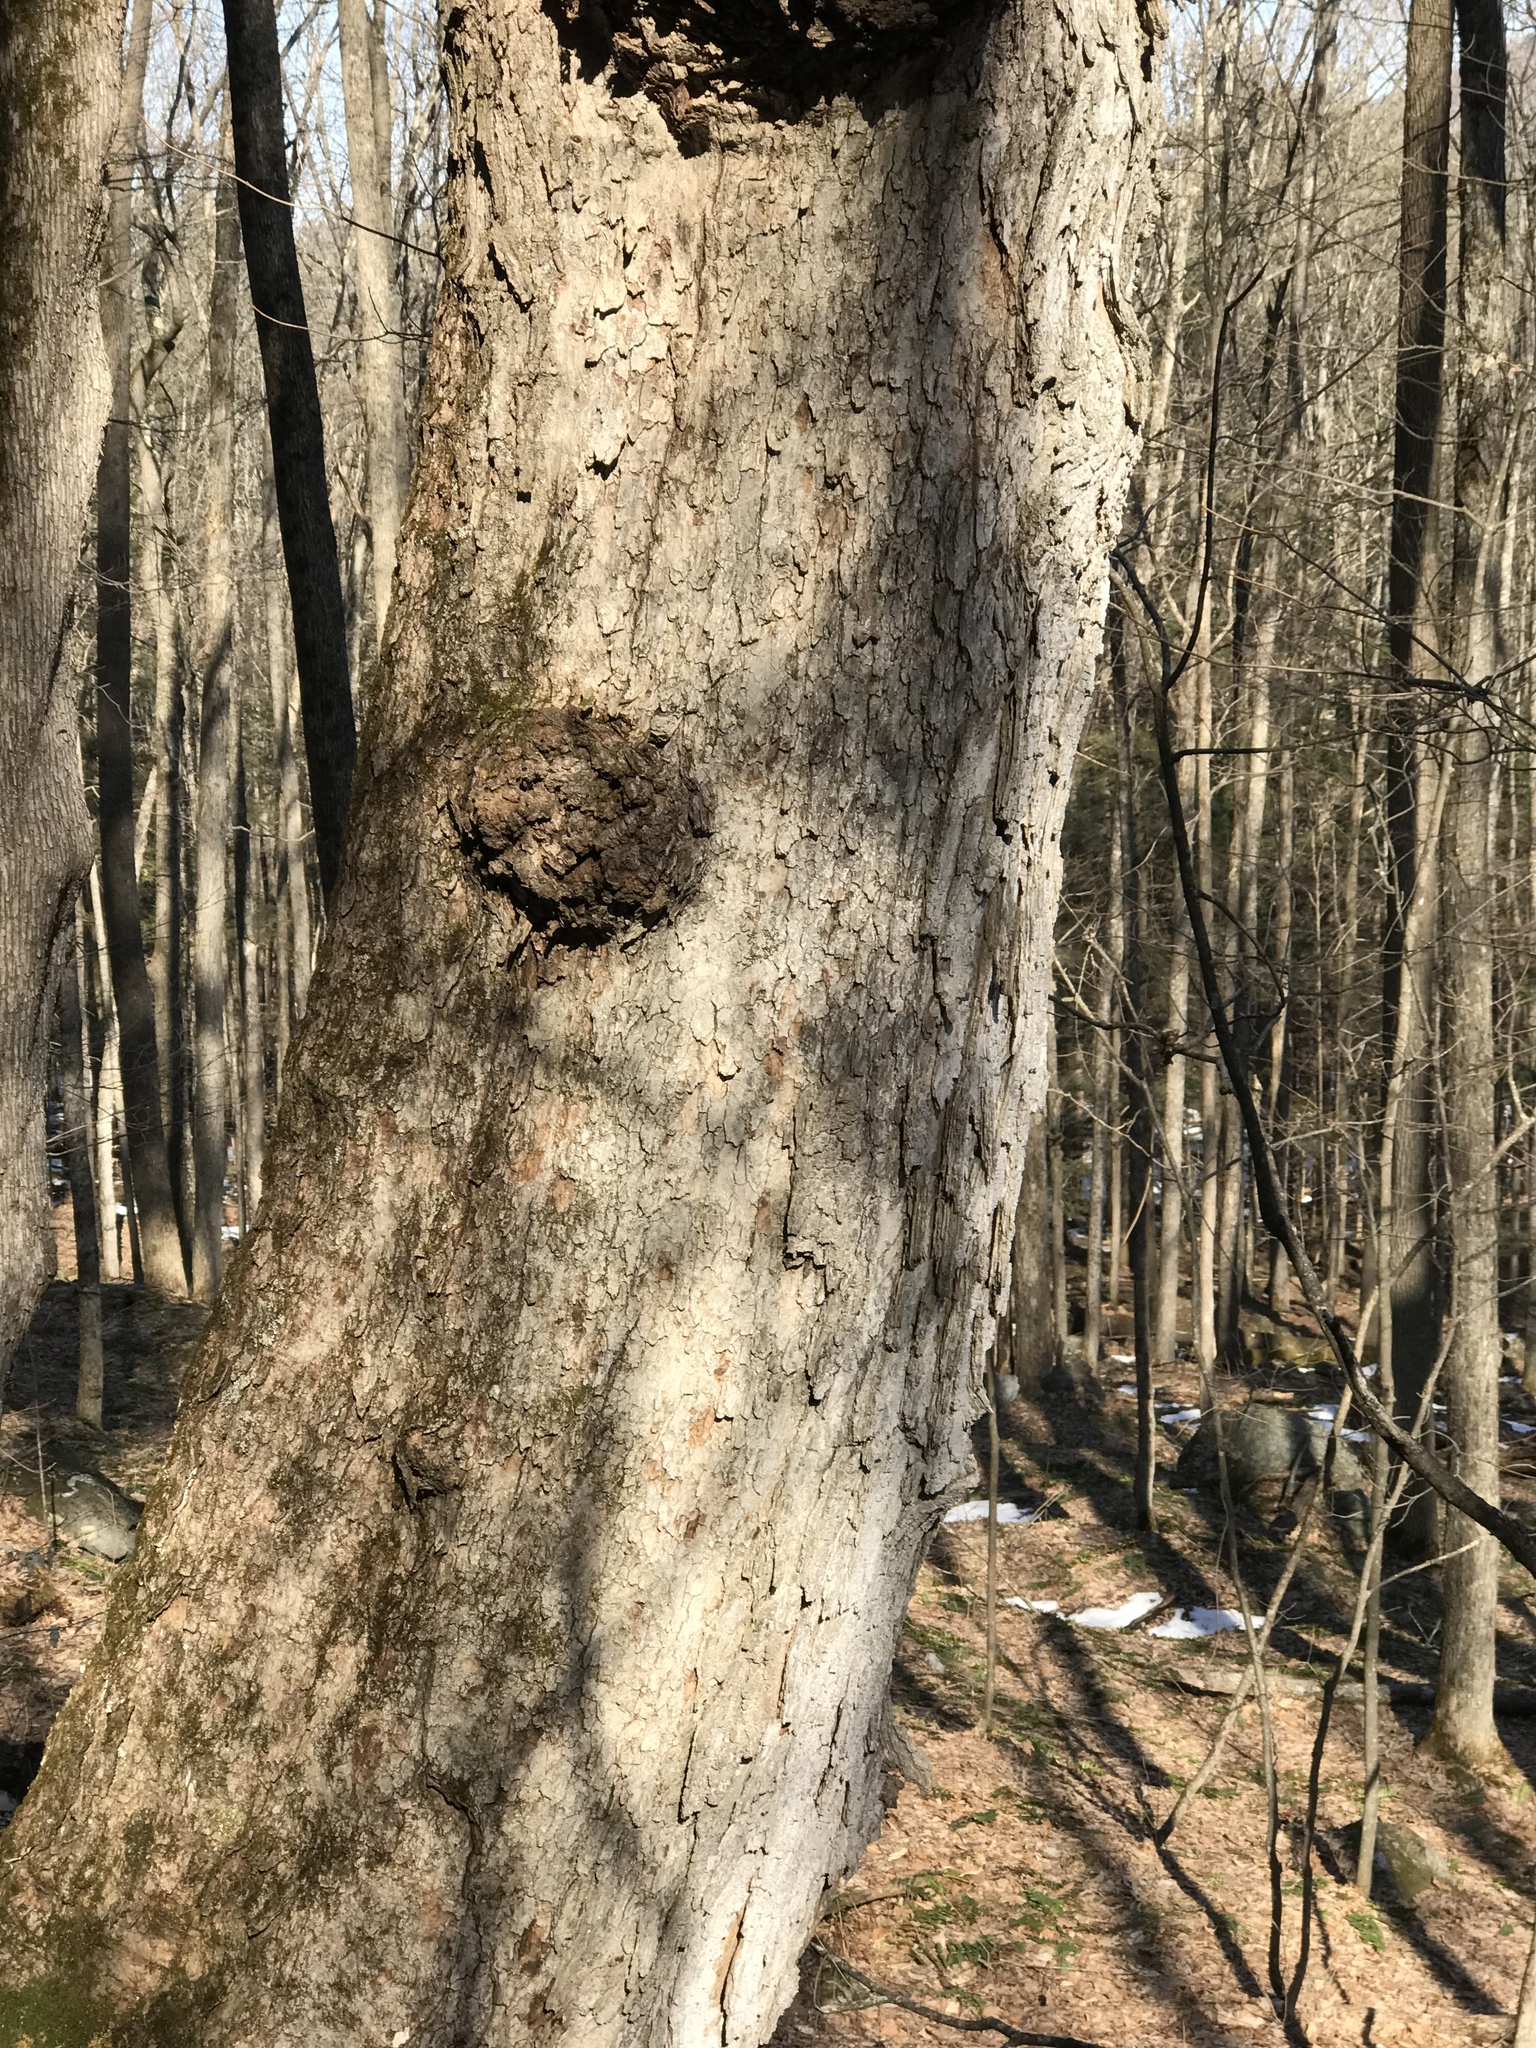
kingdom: Plantae
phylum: Tracheophyta
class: Magnoliopsida
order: Sapindales
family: Sapindaceae
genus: Acer
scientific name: Acer saccharum
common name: Sugar maple
